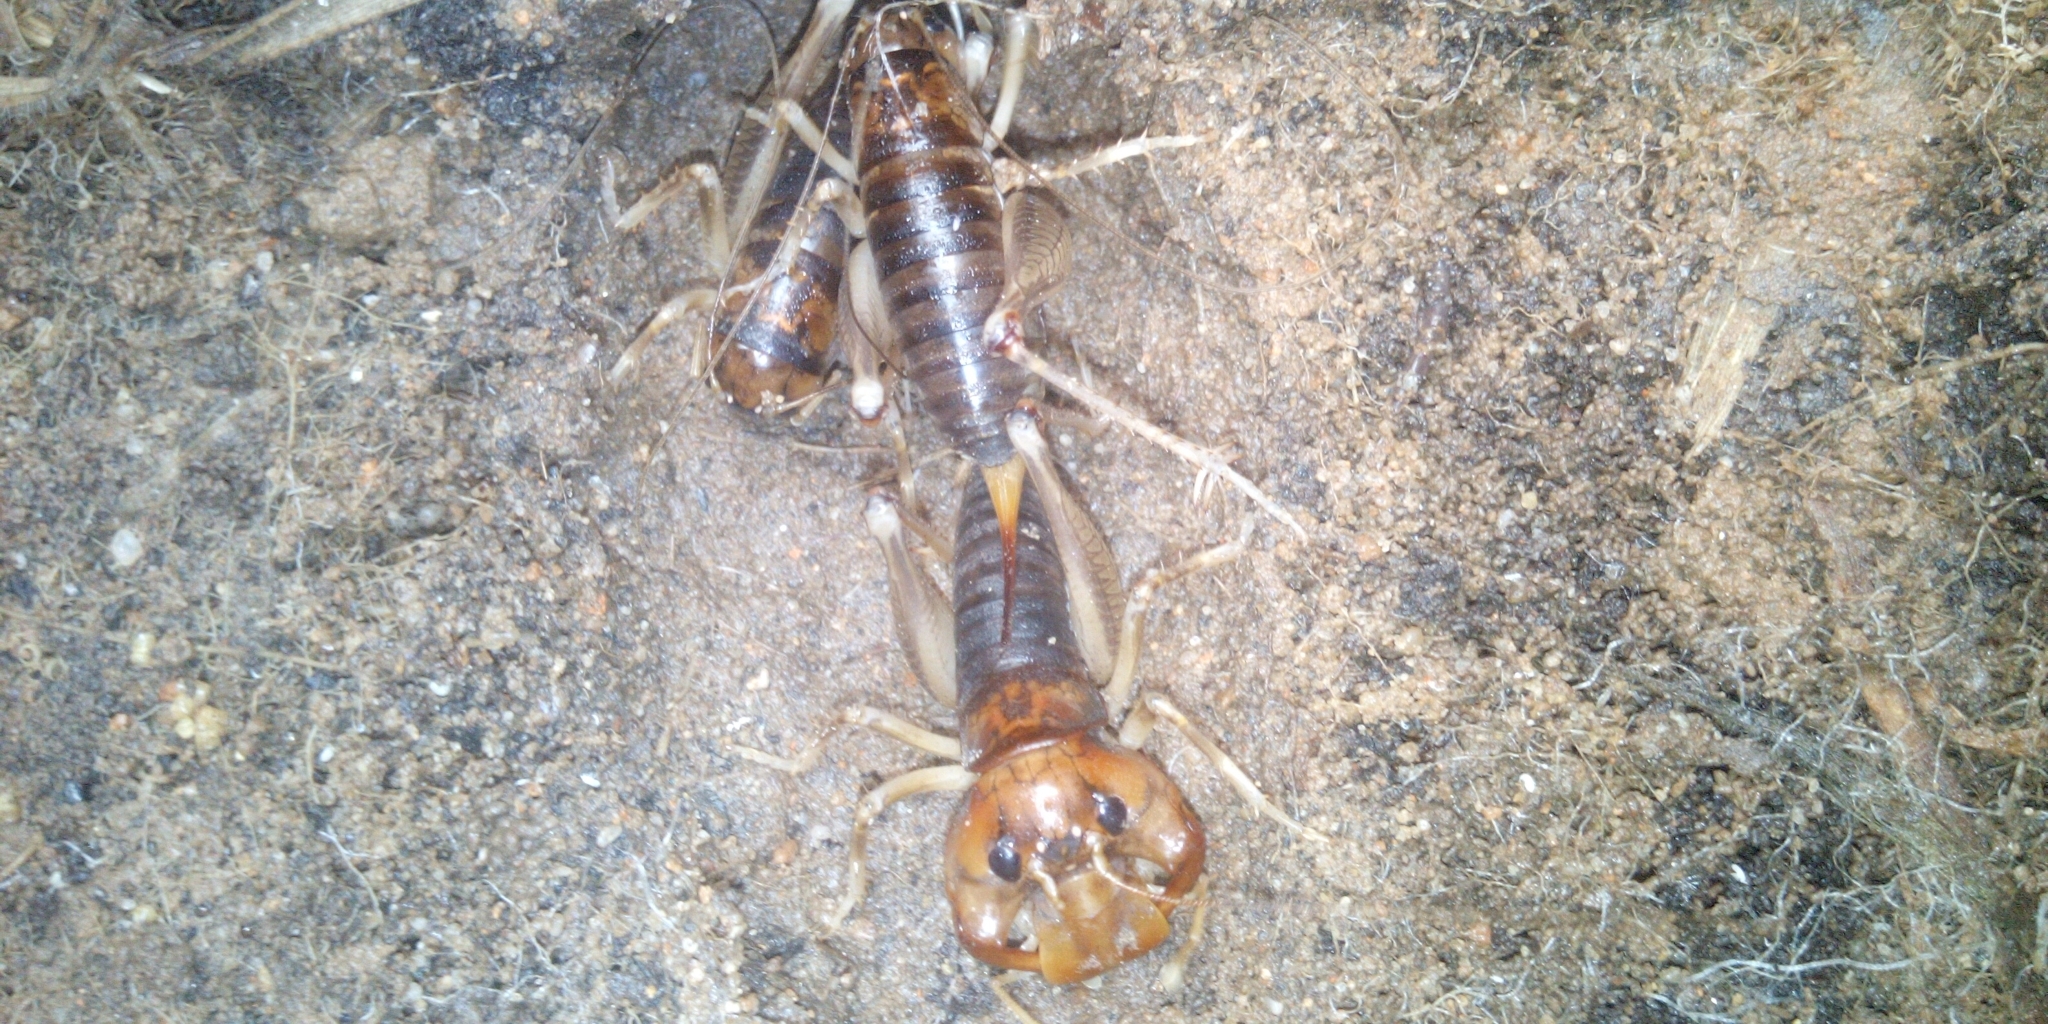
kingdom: Animalia
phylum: Arthropoda
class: Insecta
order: Orthoptera
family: Anostostomatidae
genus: Henicus
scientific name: Henicus monstrosus
